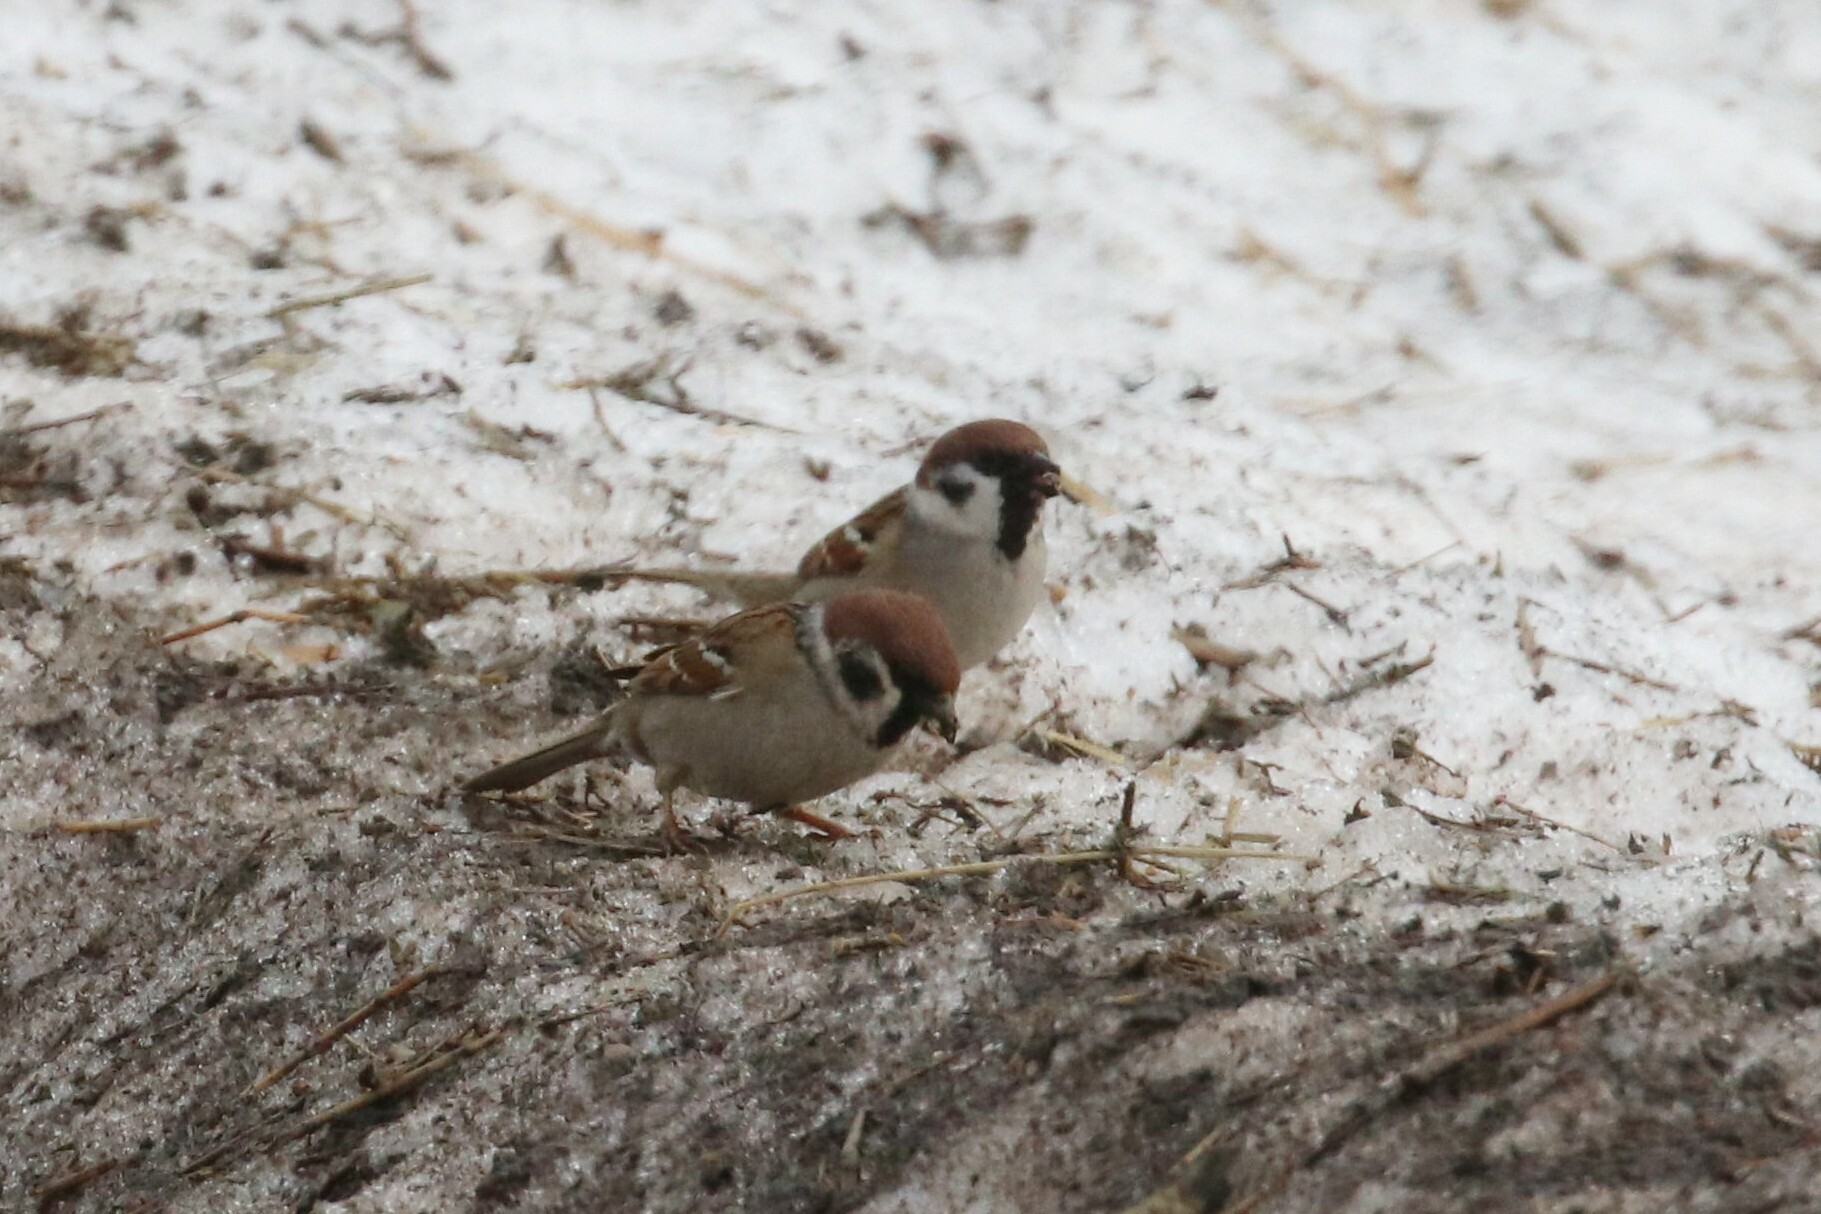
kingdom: Animalia
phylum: Chordata
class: Aves
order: Passeriformes
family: Passeridae
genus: Passer
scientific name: Passer montanus
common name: Eurasian tree sparrow
